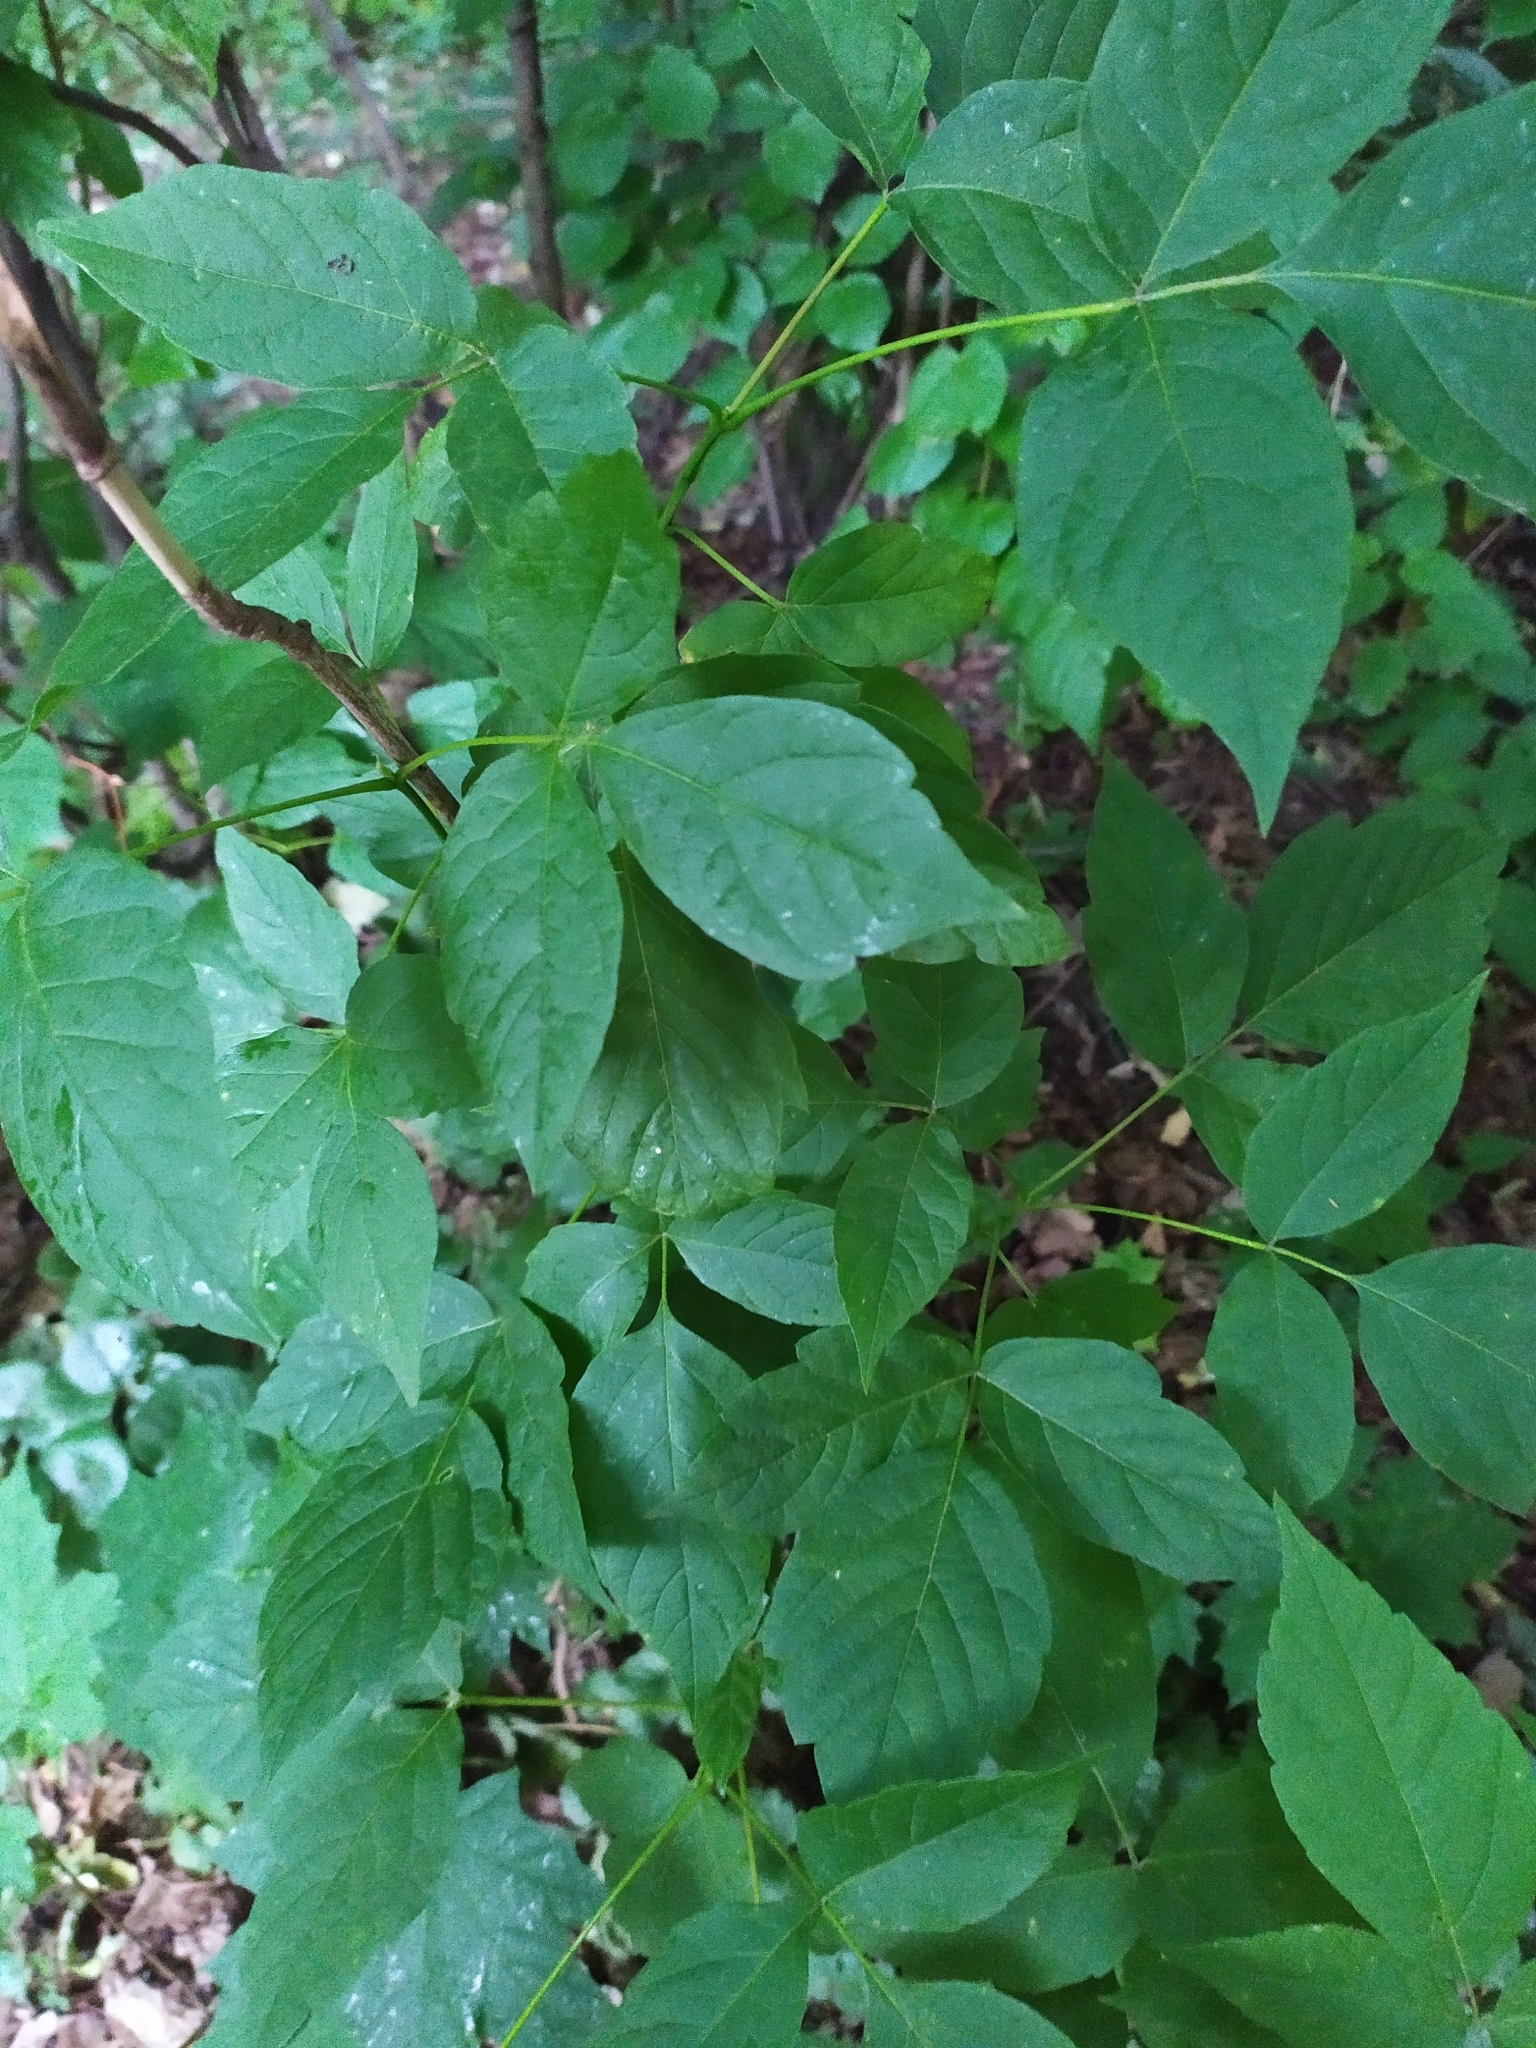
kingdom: Plantae
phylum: Tracheophyta
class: Magnoliopsida
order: Sapindales
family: Sapindaceae
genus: Acer
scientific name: Acer negundo
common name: Ashleaf maple
